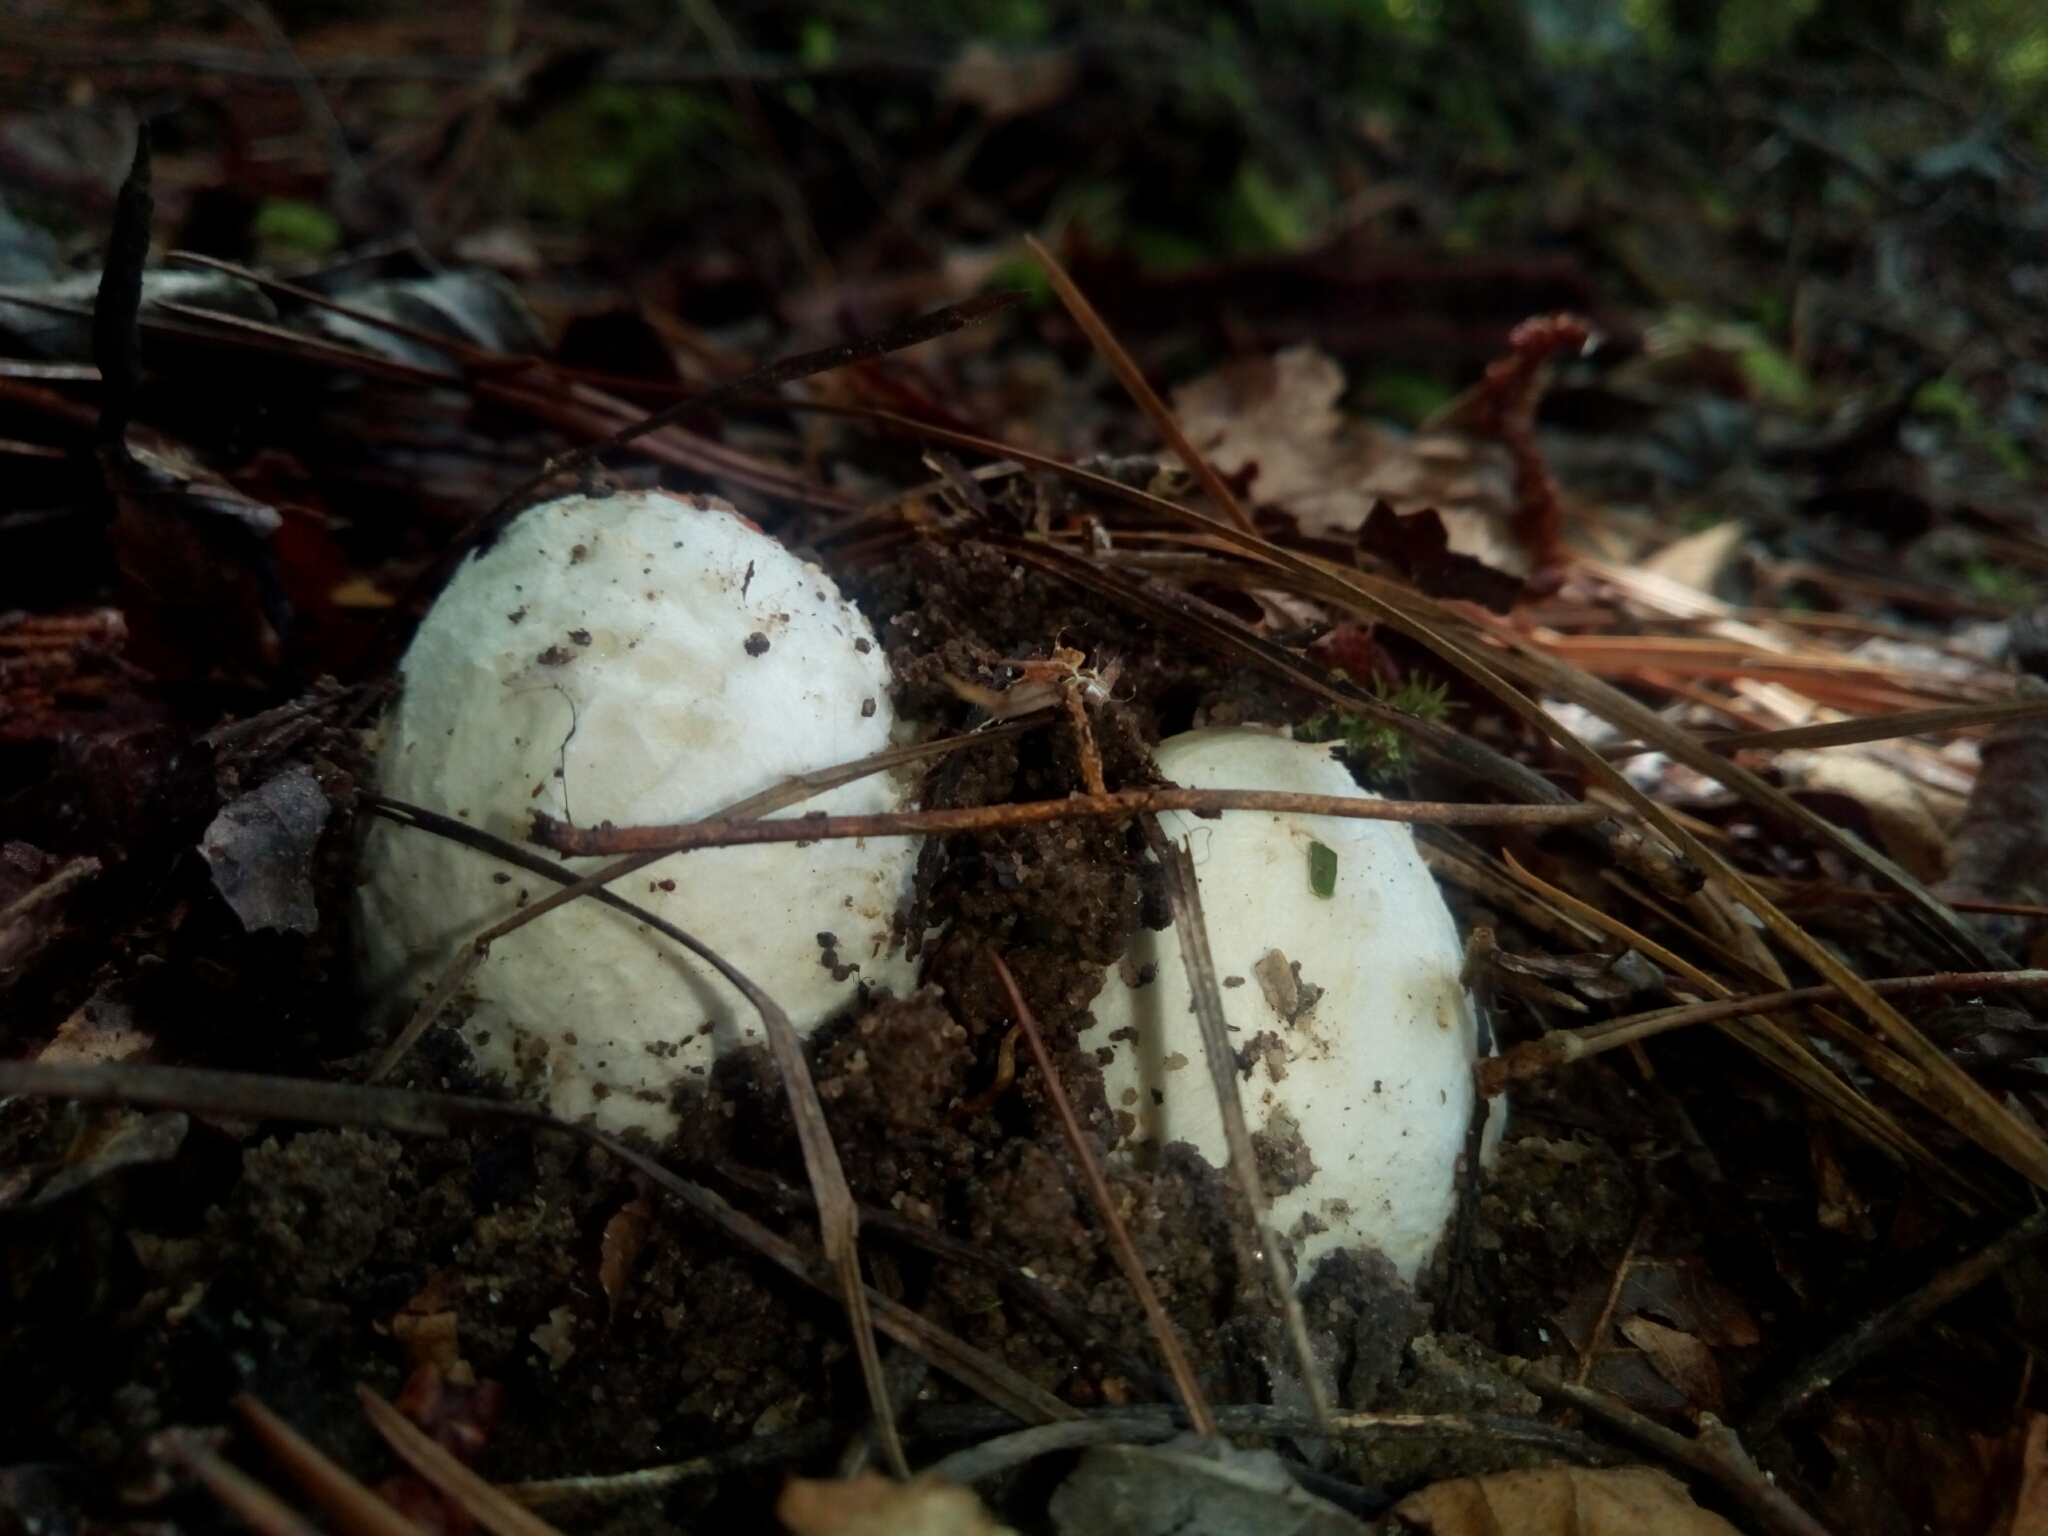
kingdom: Fungi
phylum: Basidiomycota
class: Agaricomycetes
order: Agaricales
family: Amanitaceae
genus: Amanita
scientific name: Amanita jacksonii
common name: Jackson's slender caesar
